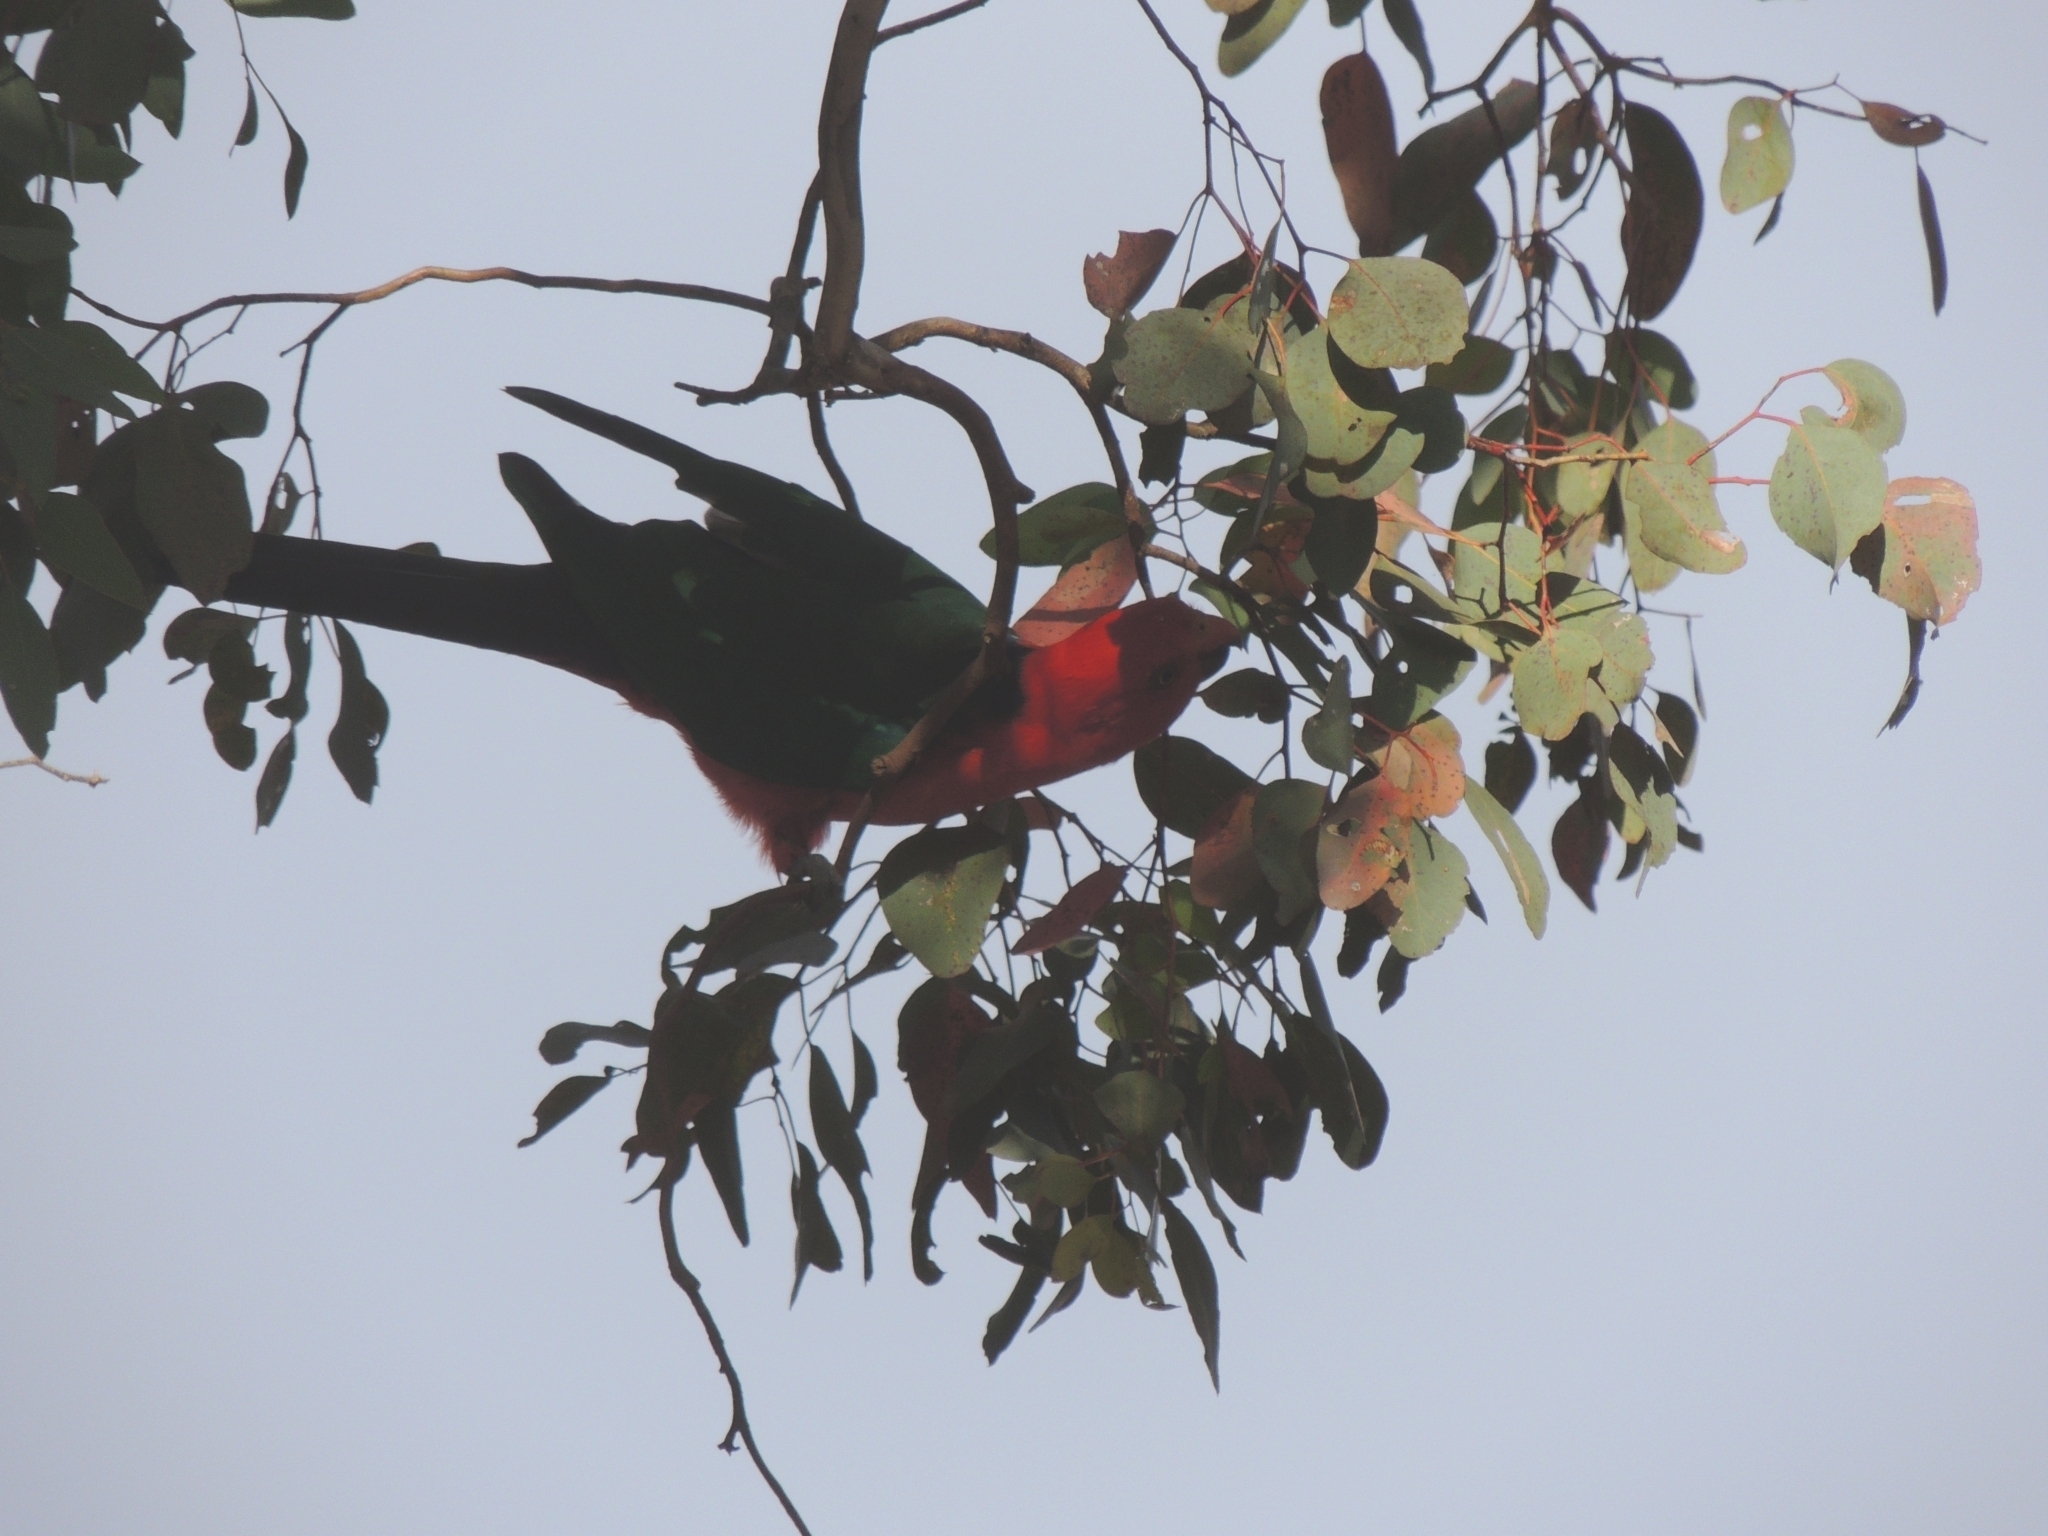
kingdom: Animalia
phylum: Chordata
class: Aves
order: Psittaciformes
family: Psittacidae
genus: Alisterus
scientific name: Alisterus scapularis
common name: Australian king parrot
